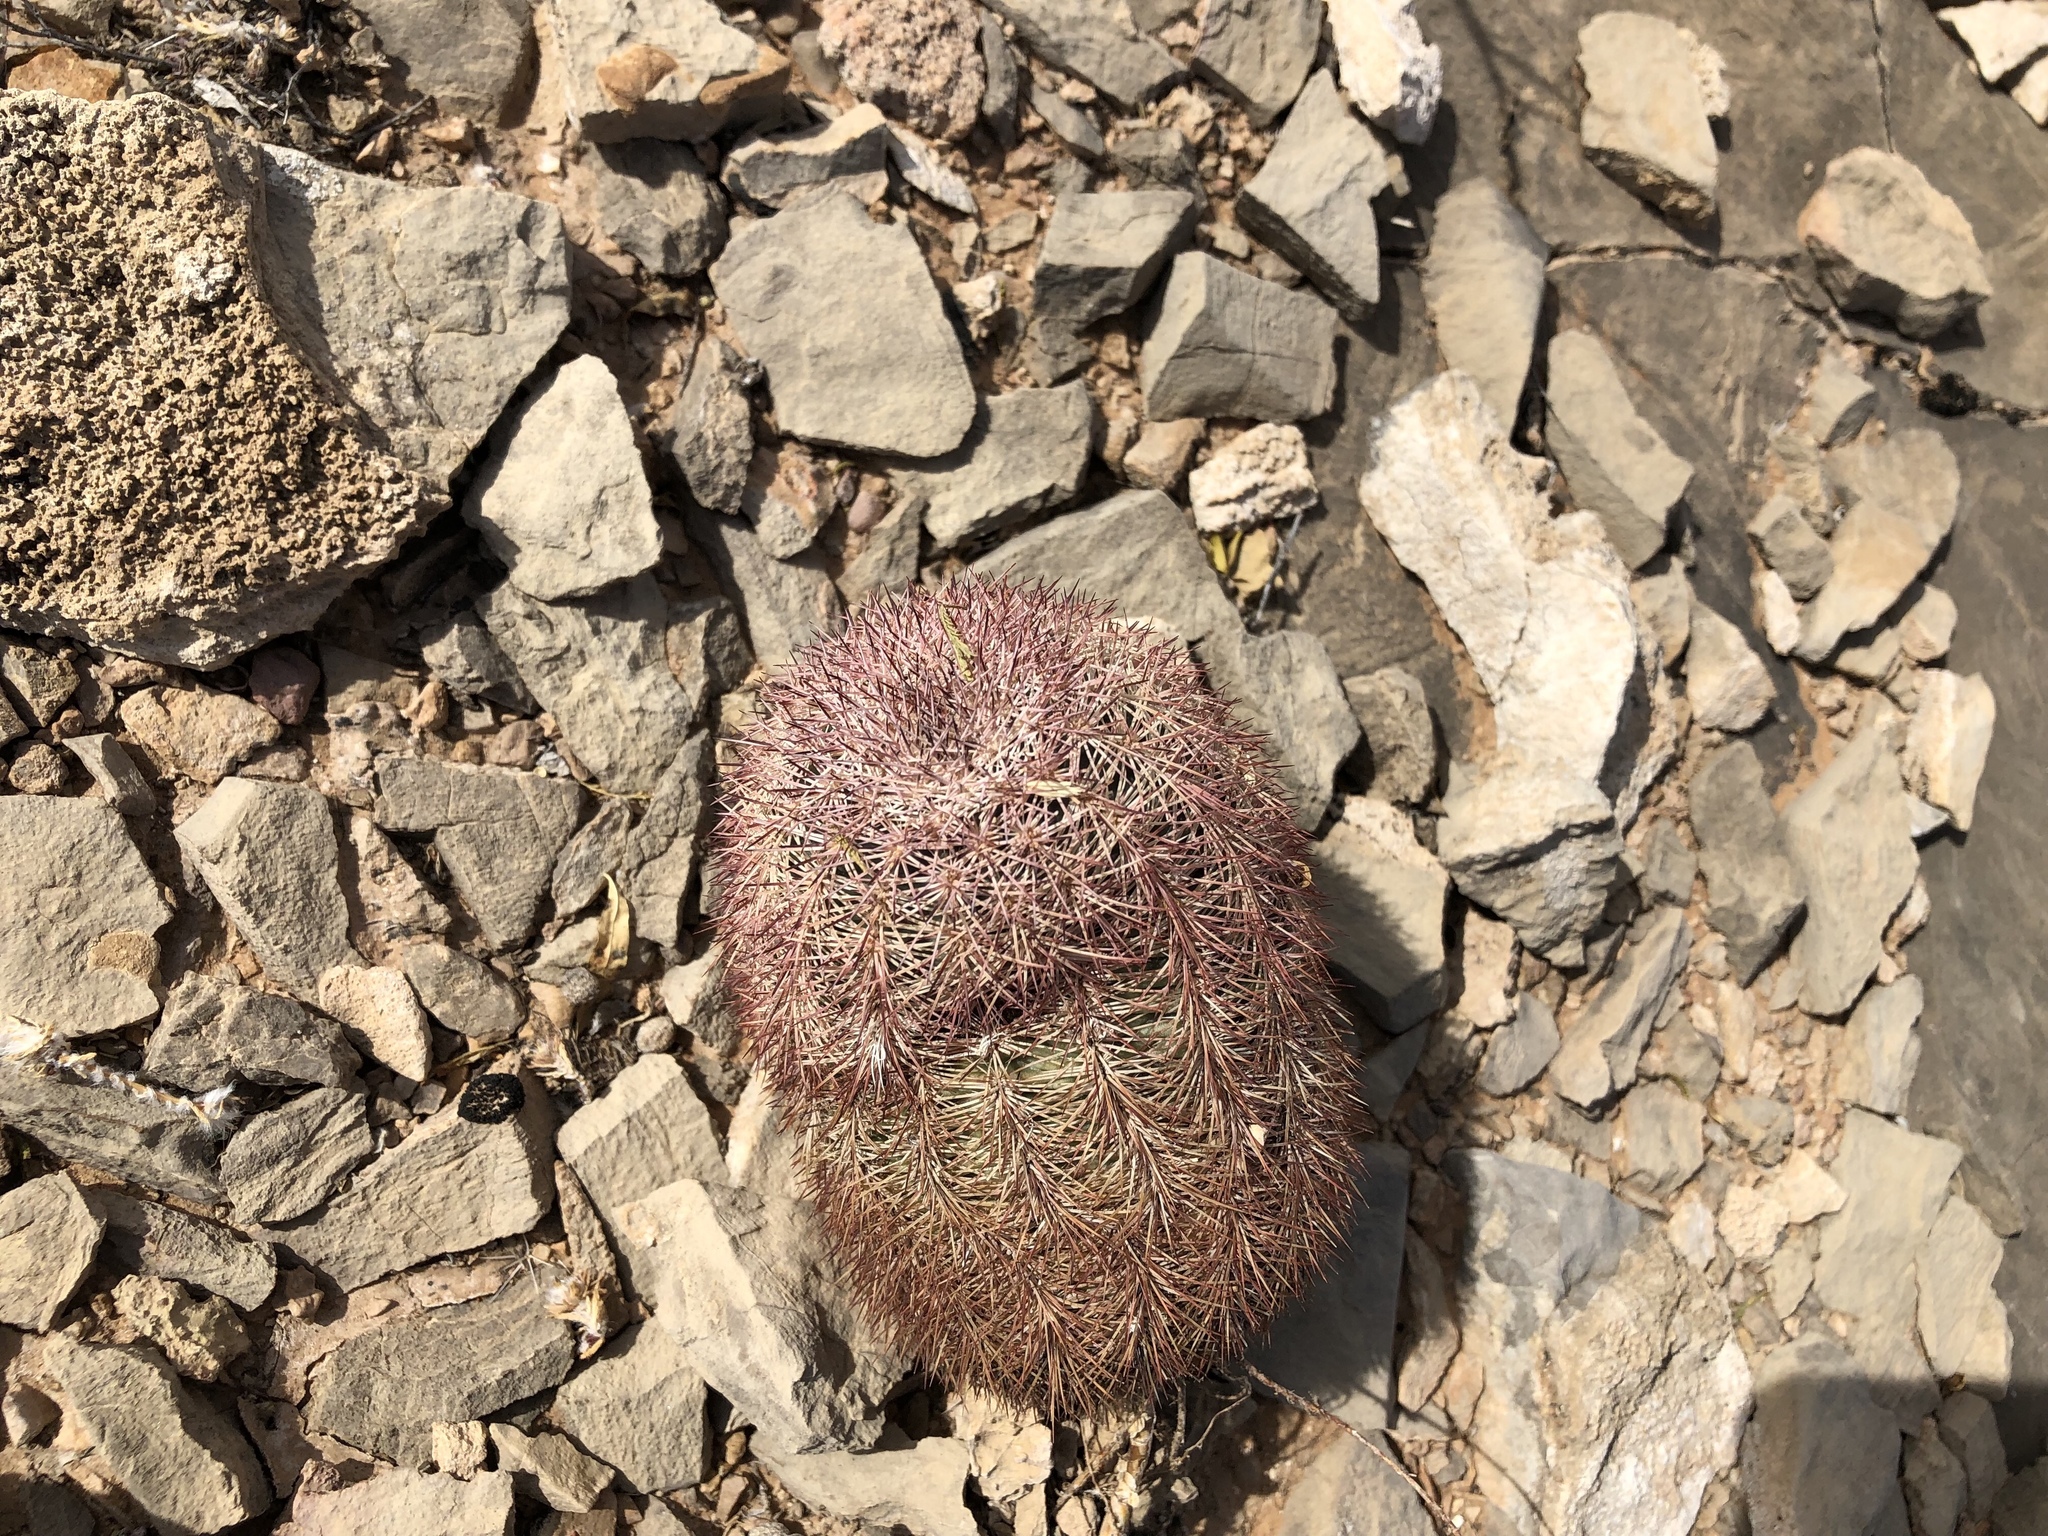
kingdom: Plantae
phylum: Tracheophyta
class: Magnoliopsida
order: Caryophyllales
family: Cactaceae
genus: Echinocereus
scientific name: Echinocereus dasyacanthus
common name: Spiny hedgehog cactus
